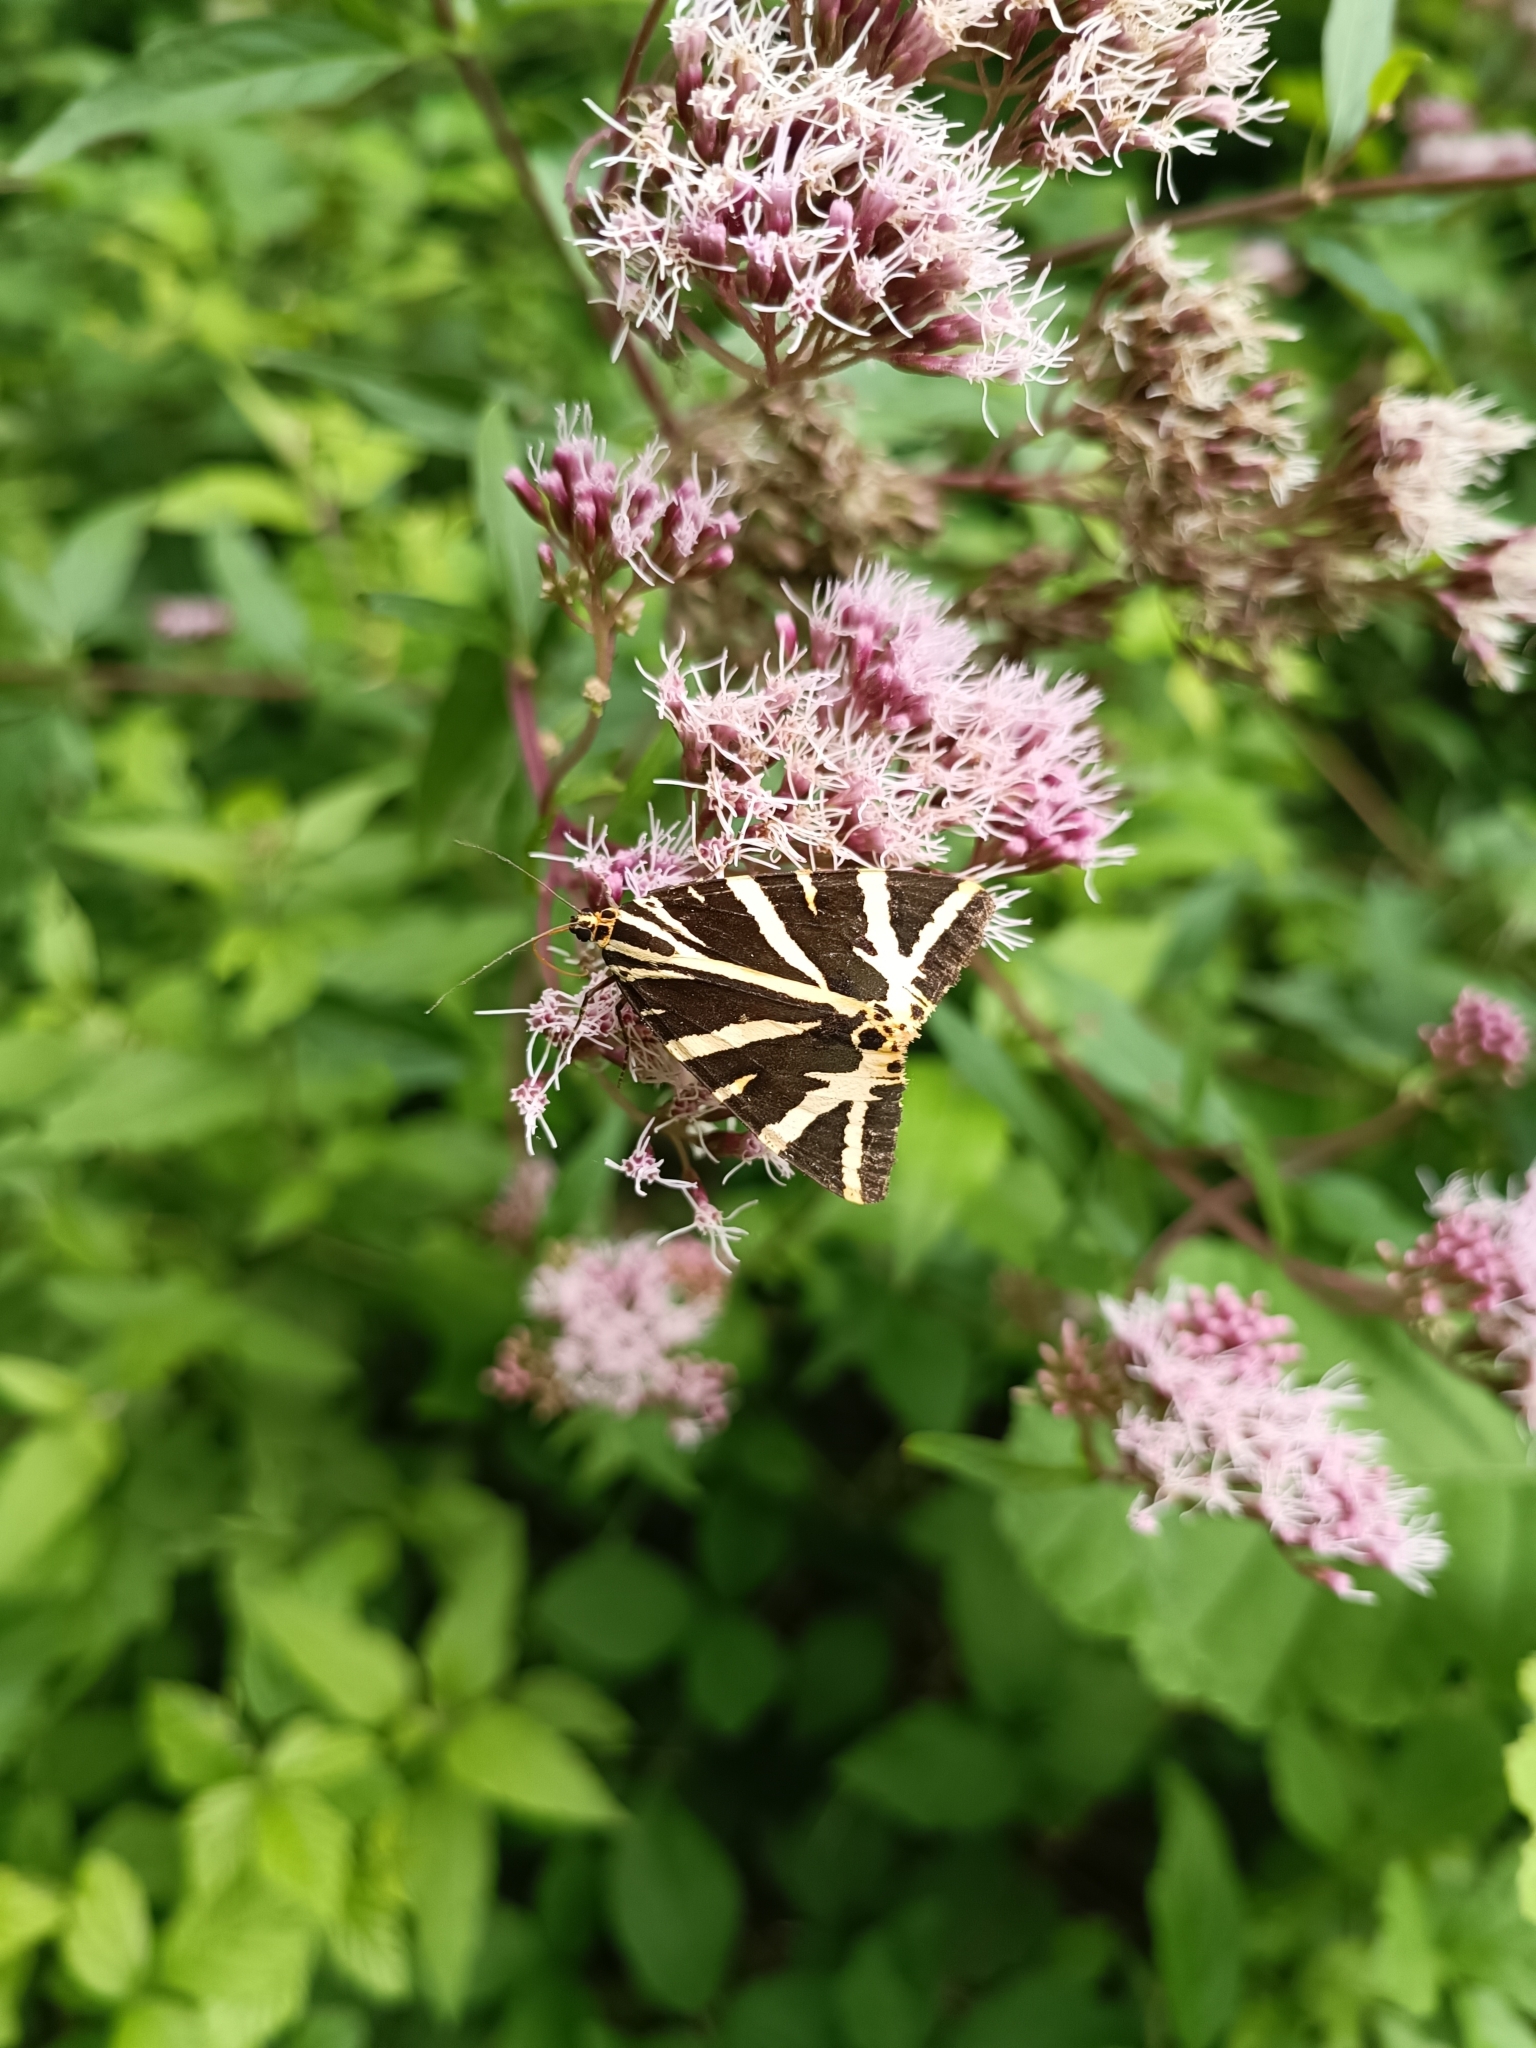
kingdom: Animalia
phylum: Arthropoda
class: Insecta
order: Lepidoptera
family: Erebidae
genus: Euplagia
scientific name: Euplagia quadripunctaria
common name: Jersey tiger
